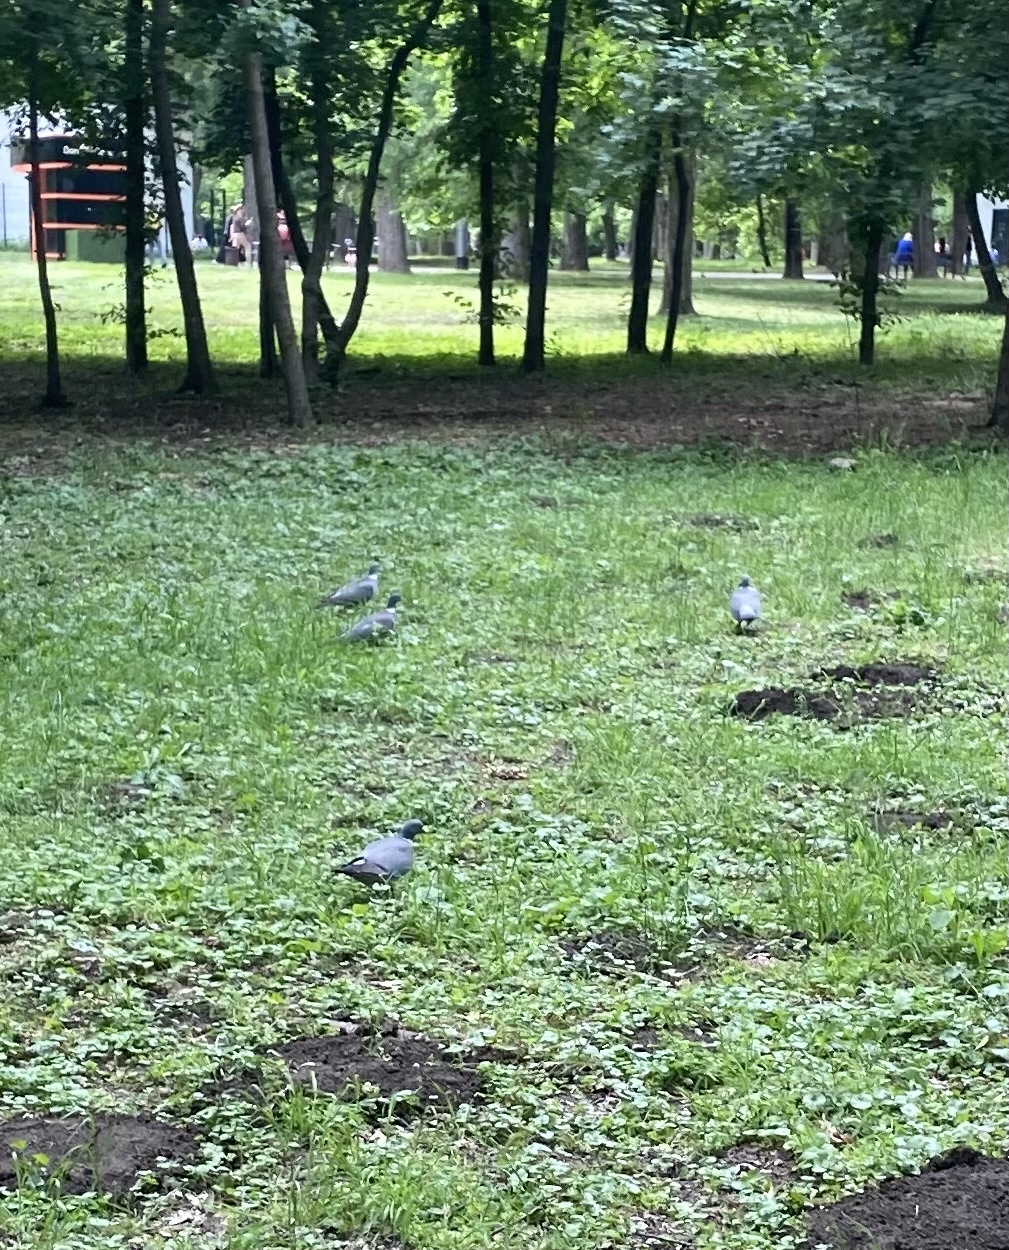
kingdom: Animalia
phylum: Chordata
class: Aves
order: Columbiformes
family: Columbidae
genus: Columba
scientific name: Columba palumbus
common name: Common wood pigeon
